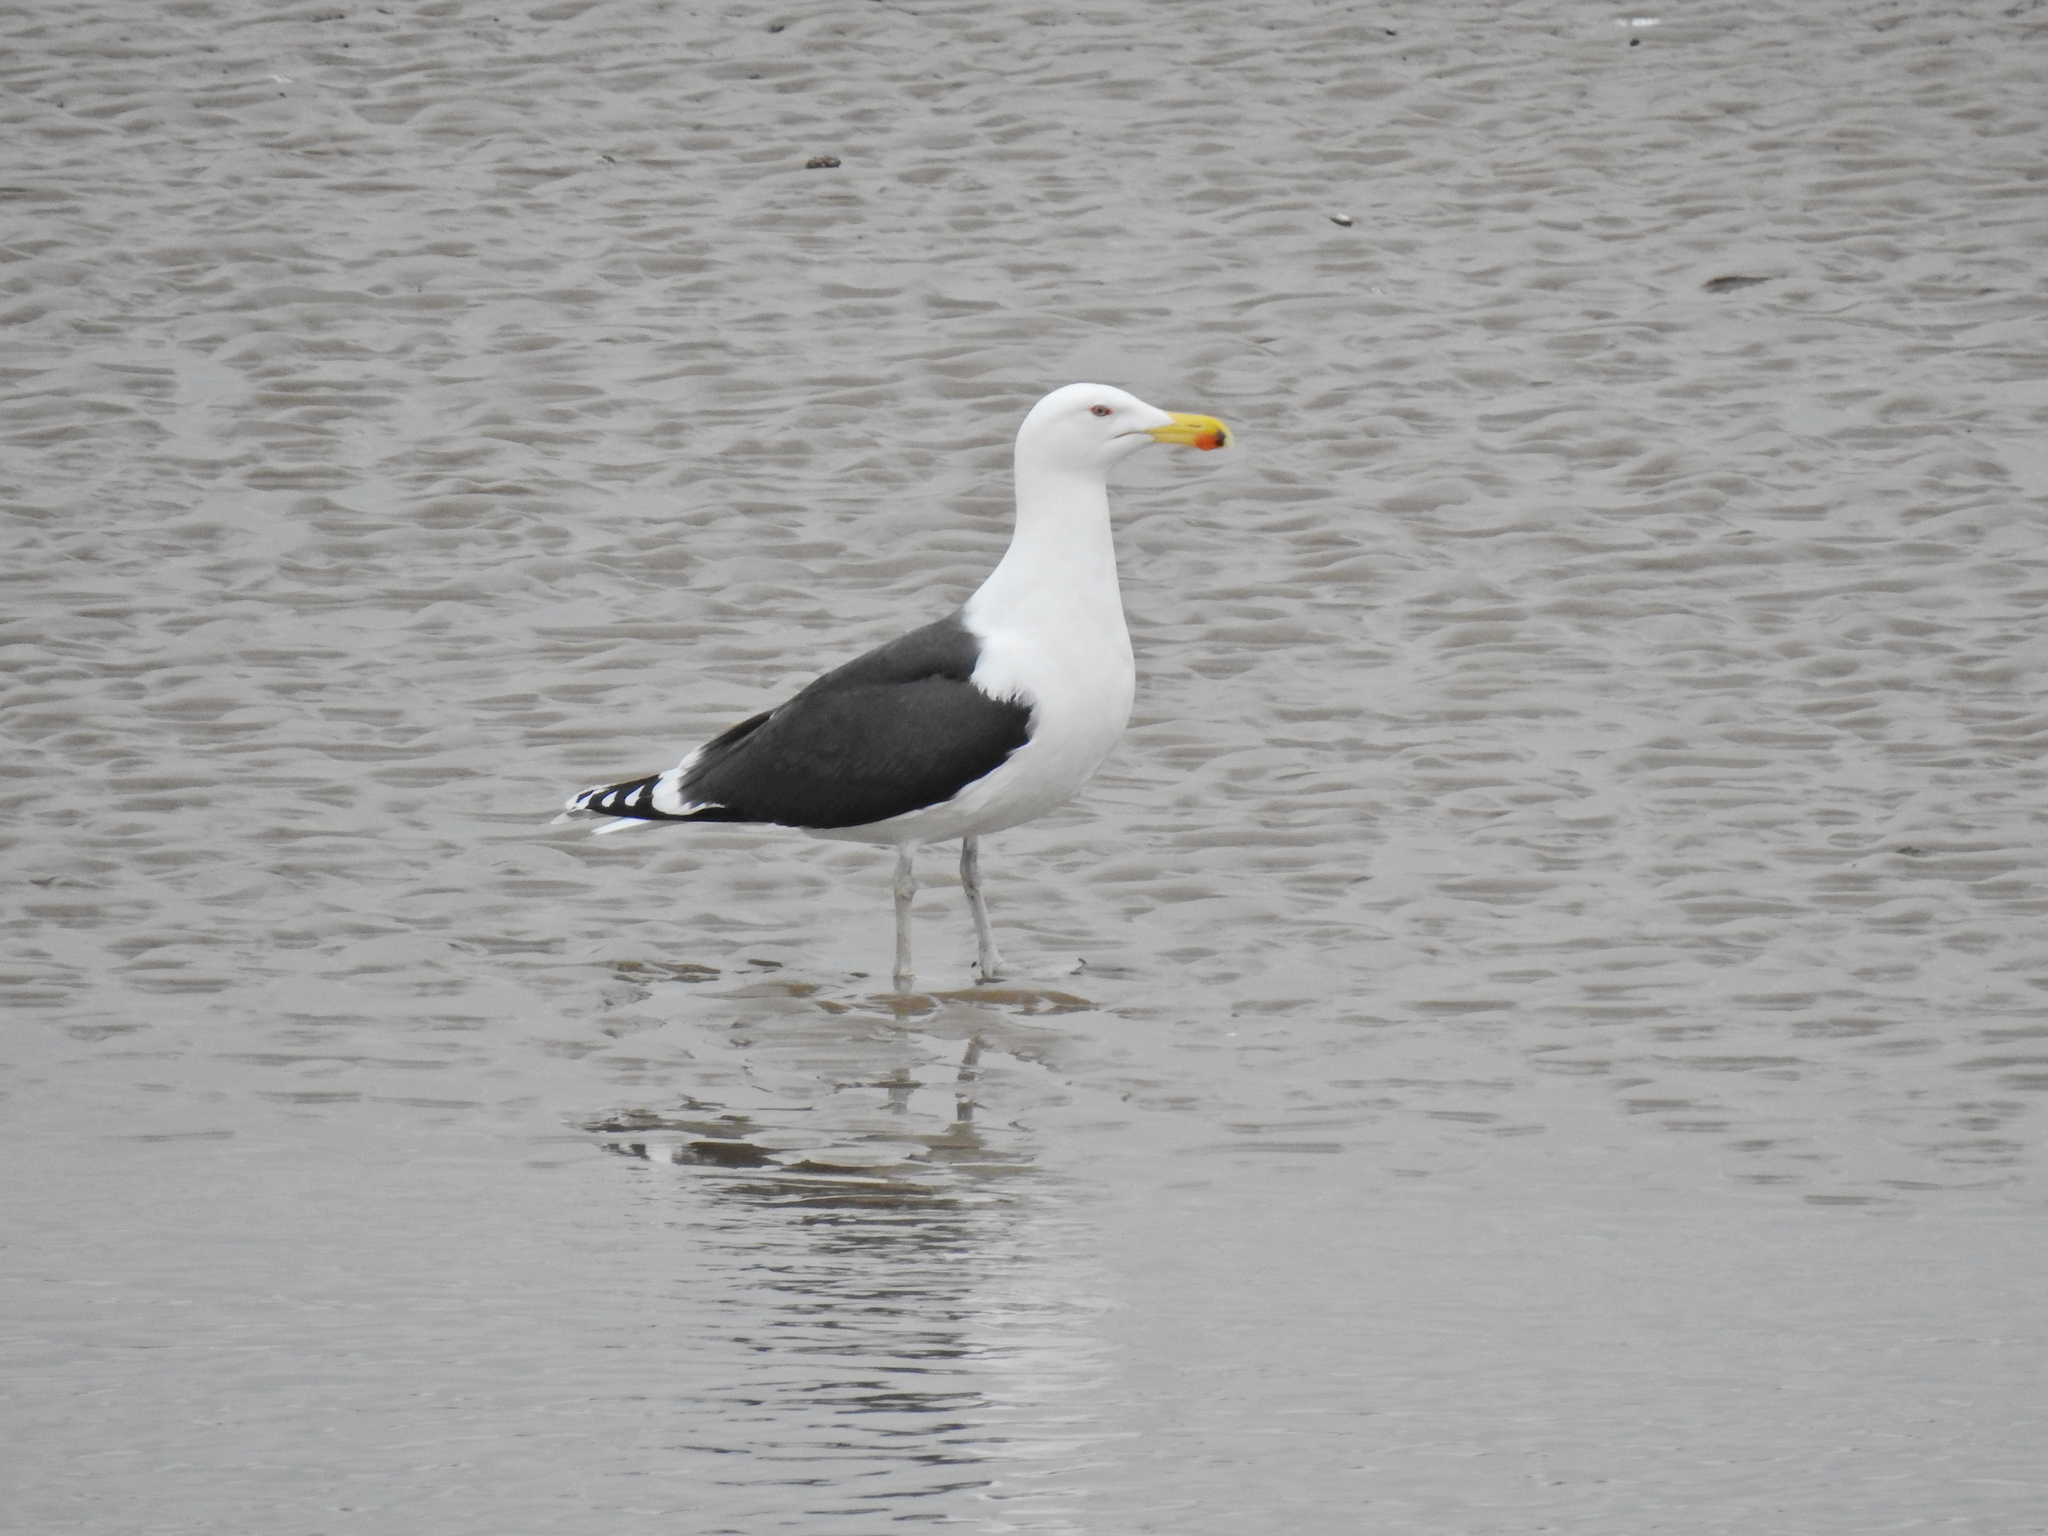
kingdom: Animalia
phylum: Chordata
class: Aves
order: Charadriiformes
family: Laridae
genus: Larus
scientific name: Larus marinus
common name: Great black-backed gull
